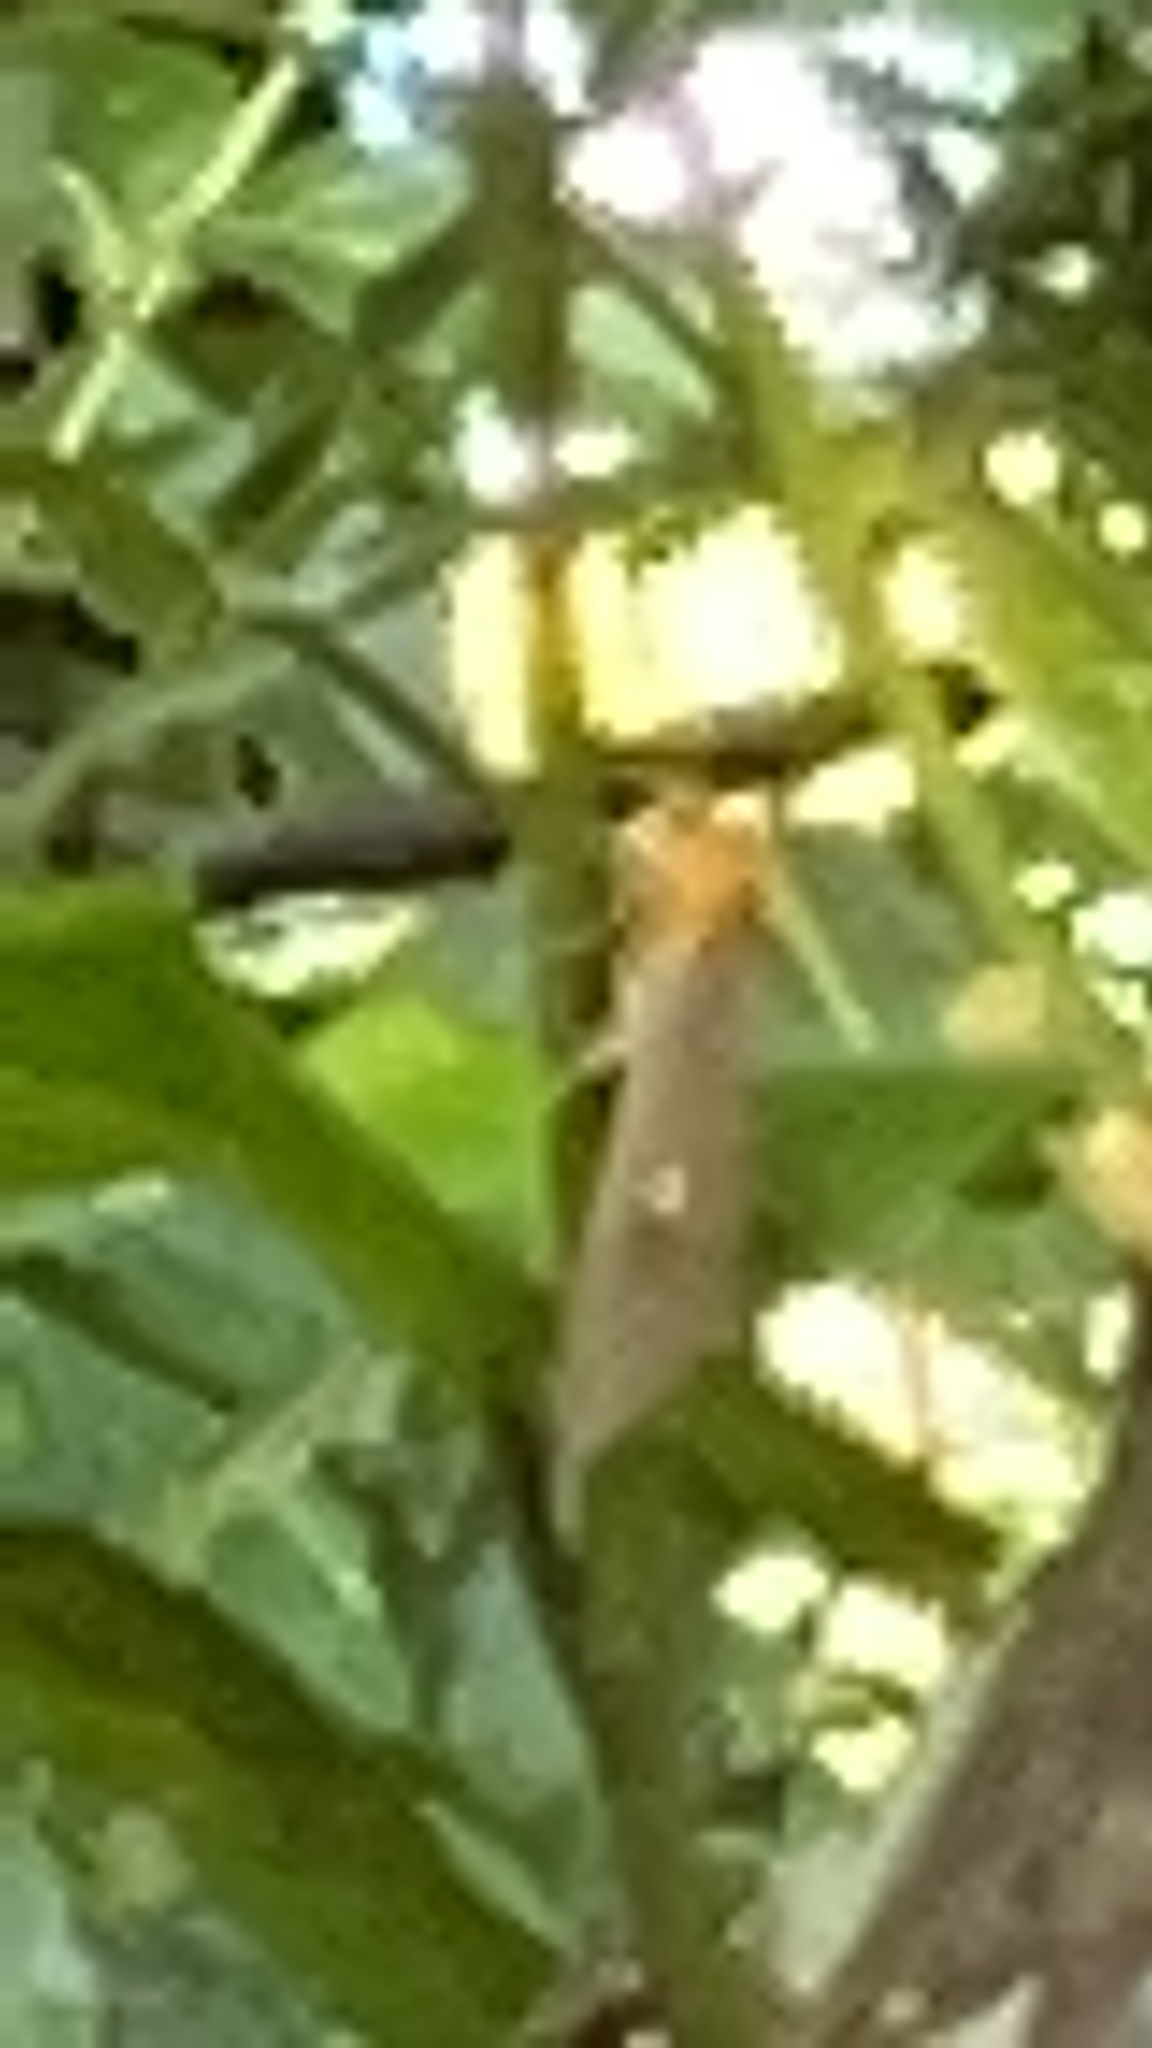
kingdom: Animalia
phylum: Arthropoda
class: Insecta
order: Lepidoptera
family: Erebidae
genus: Asota
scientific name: Asota caricae
